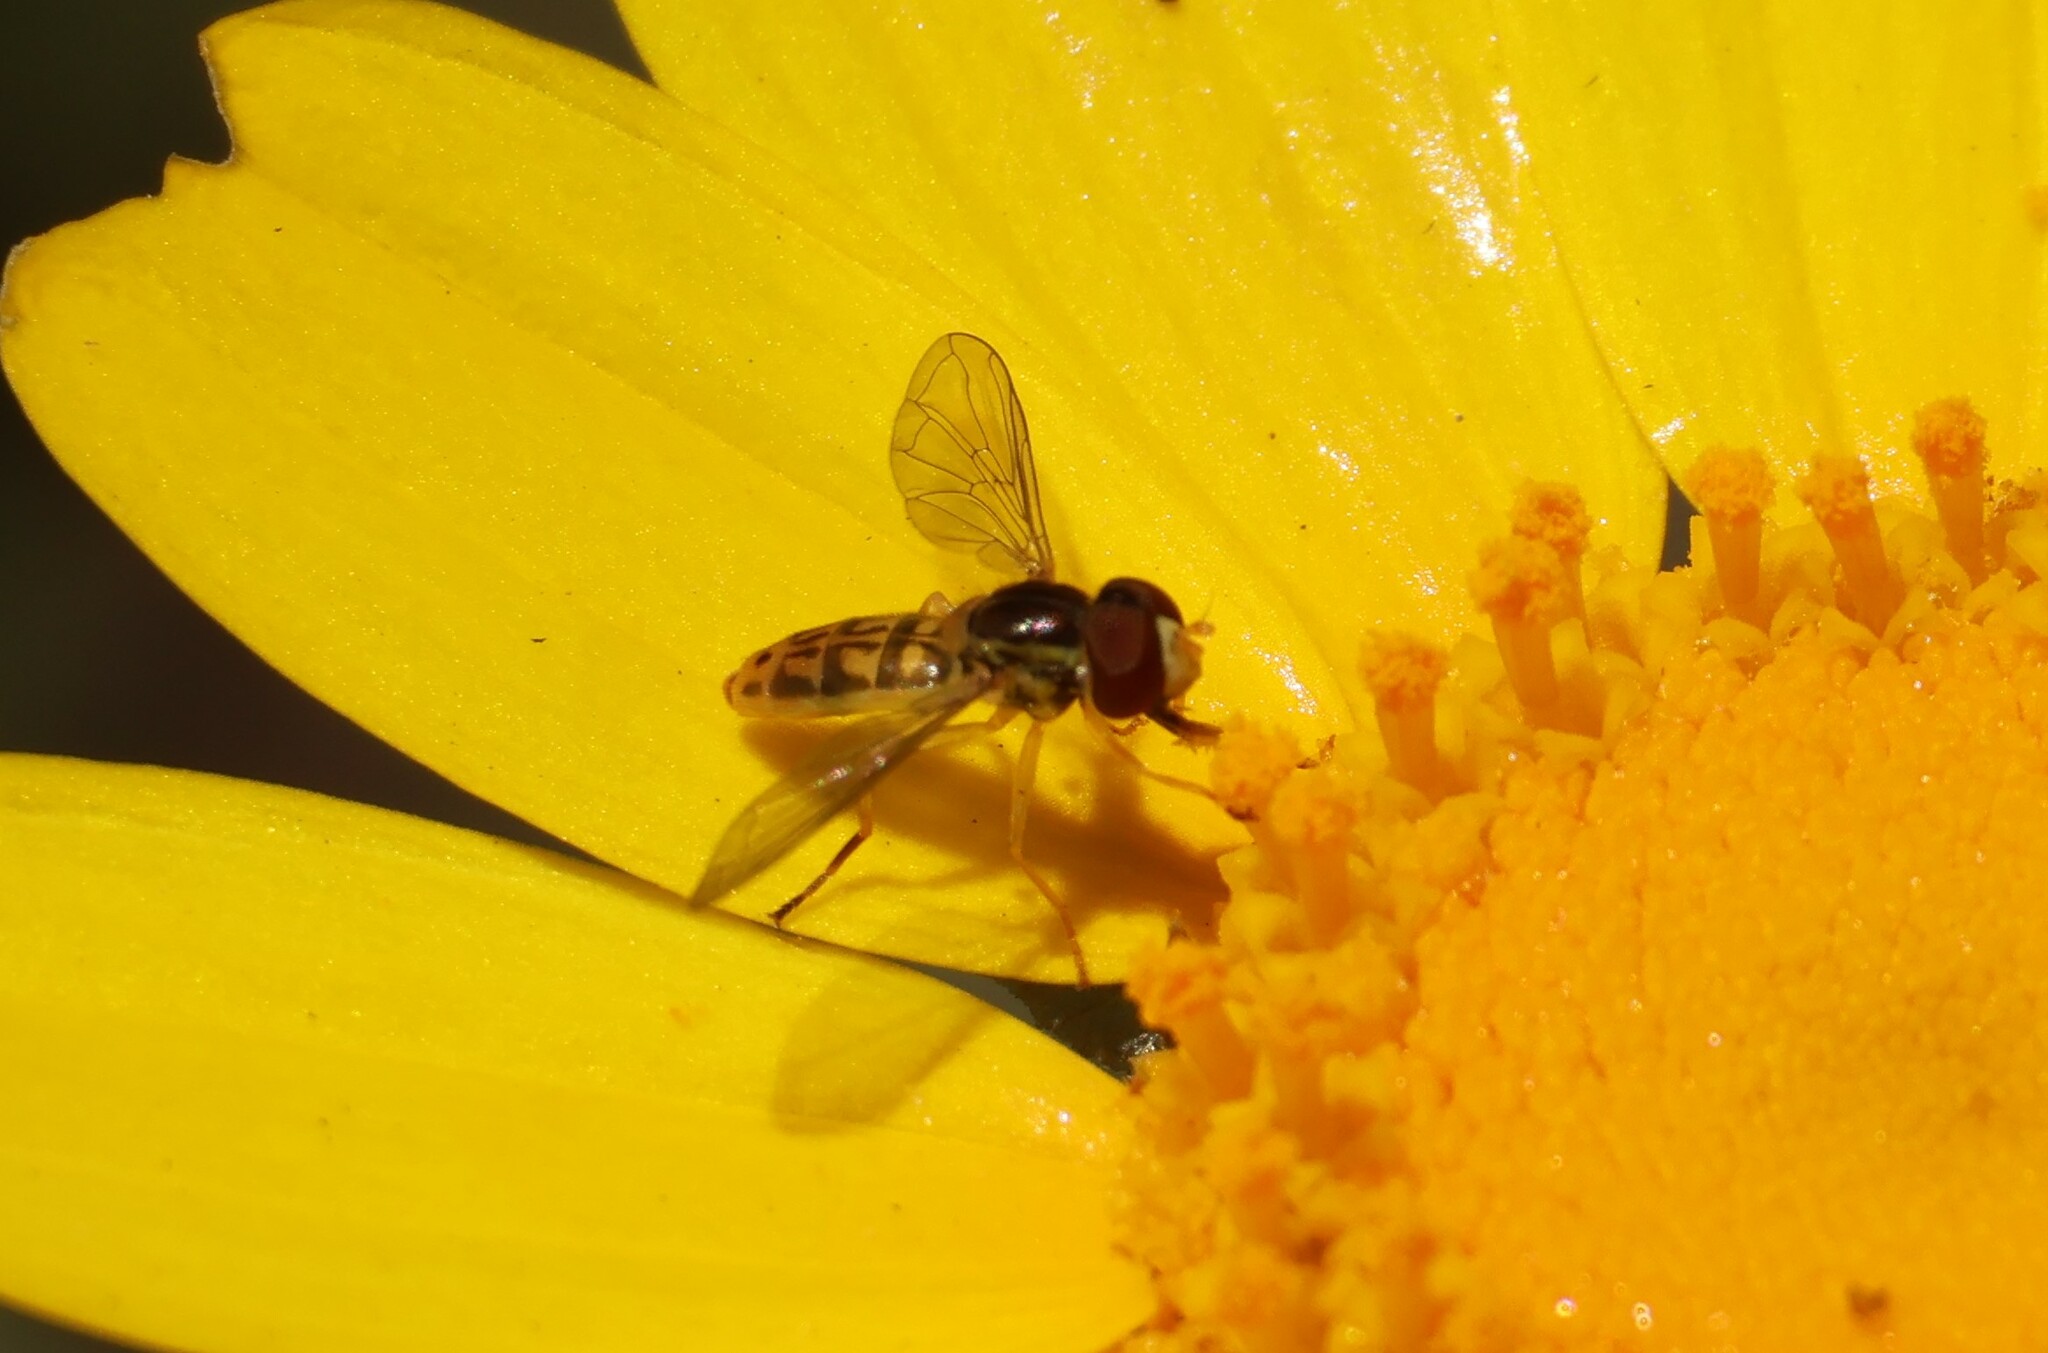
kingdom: Animalia
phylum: Arthropoda
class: Insecta
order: Diptera
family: Syrphidae
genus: Toxomerus
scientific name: Toxomerus marginatus
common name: Syrphid fly
